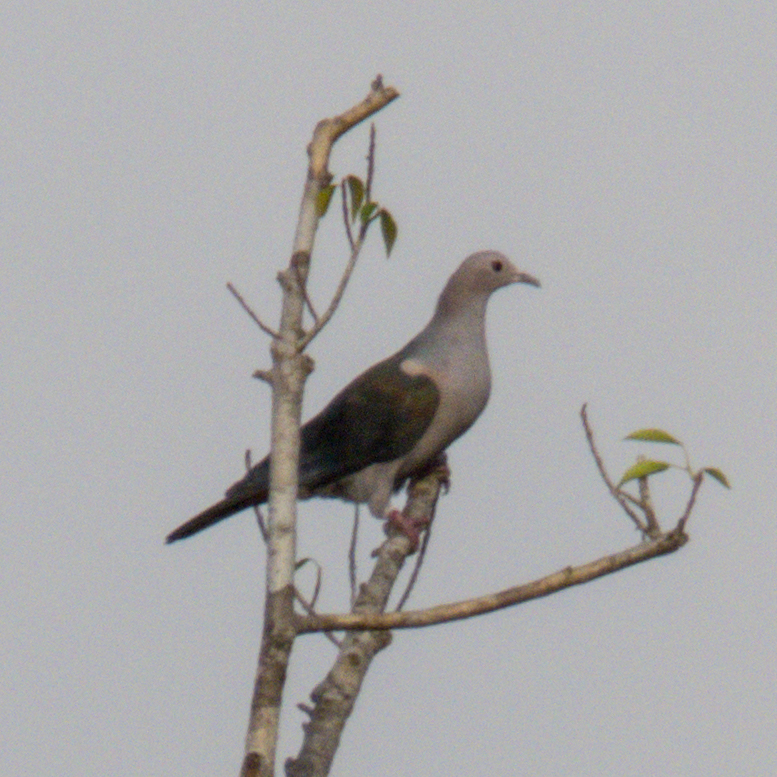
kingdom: Animalia
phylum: Chordata
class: Aves
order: Columbiformes
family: Columbidae
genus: Ducula
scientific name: Ducula aenea
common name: Green imperial pigeon
